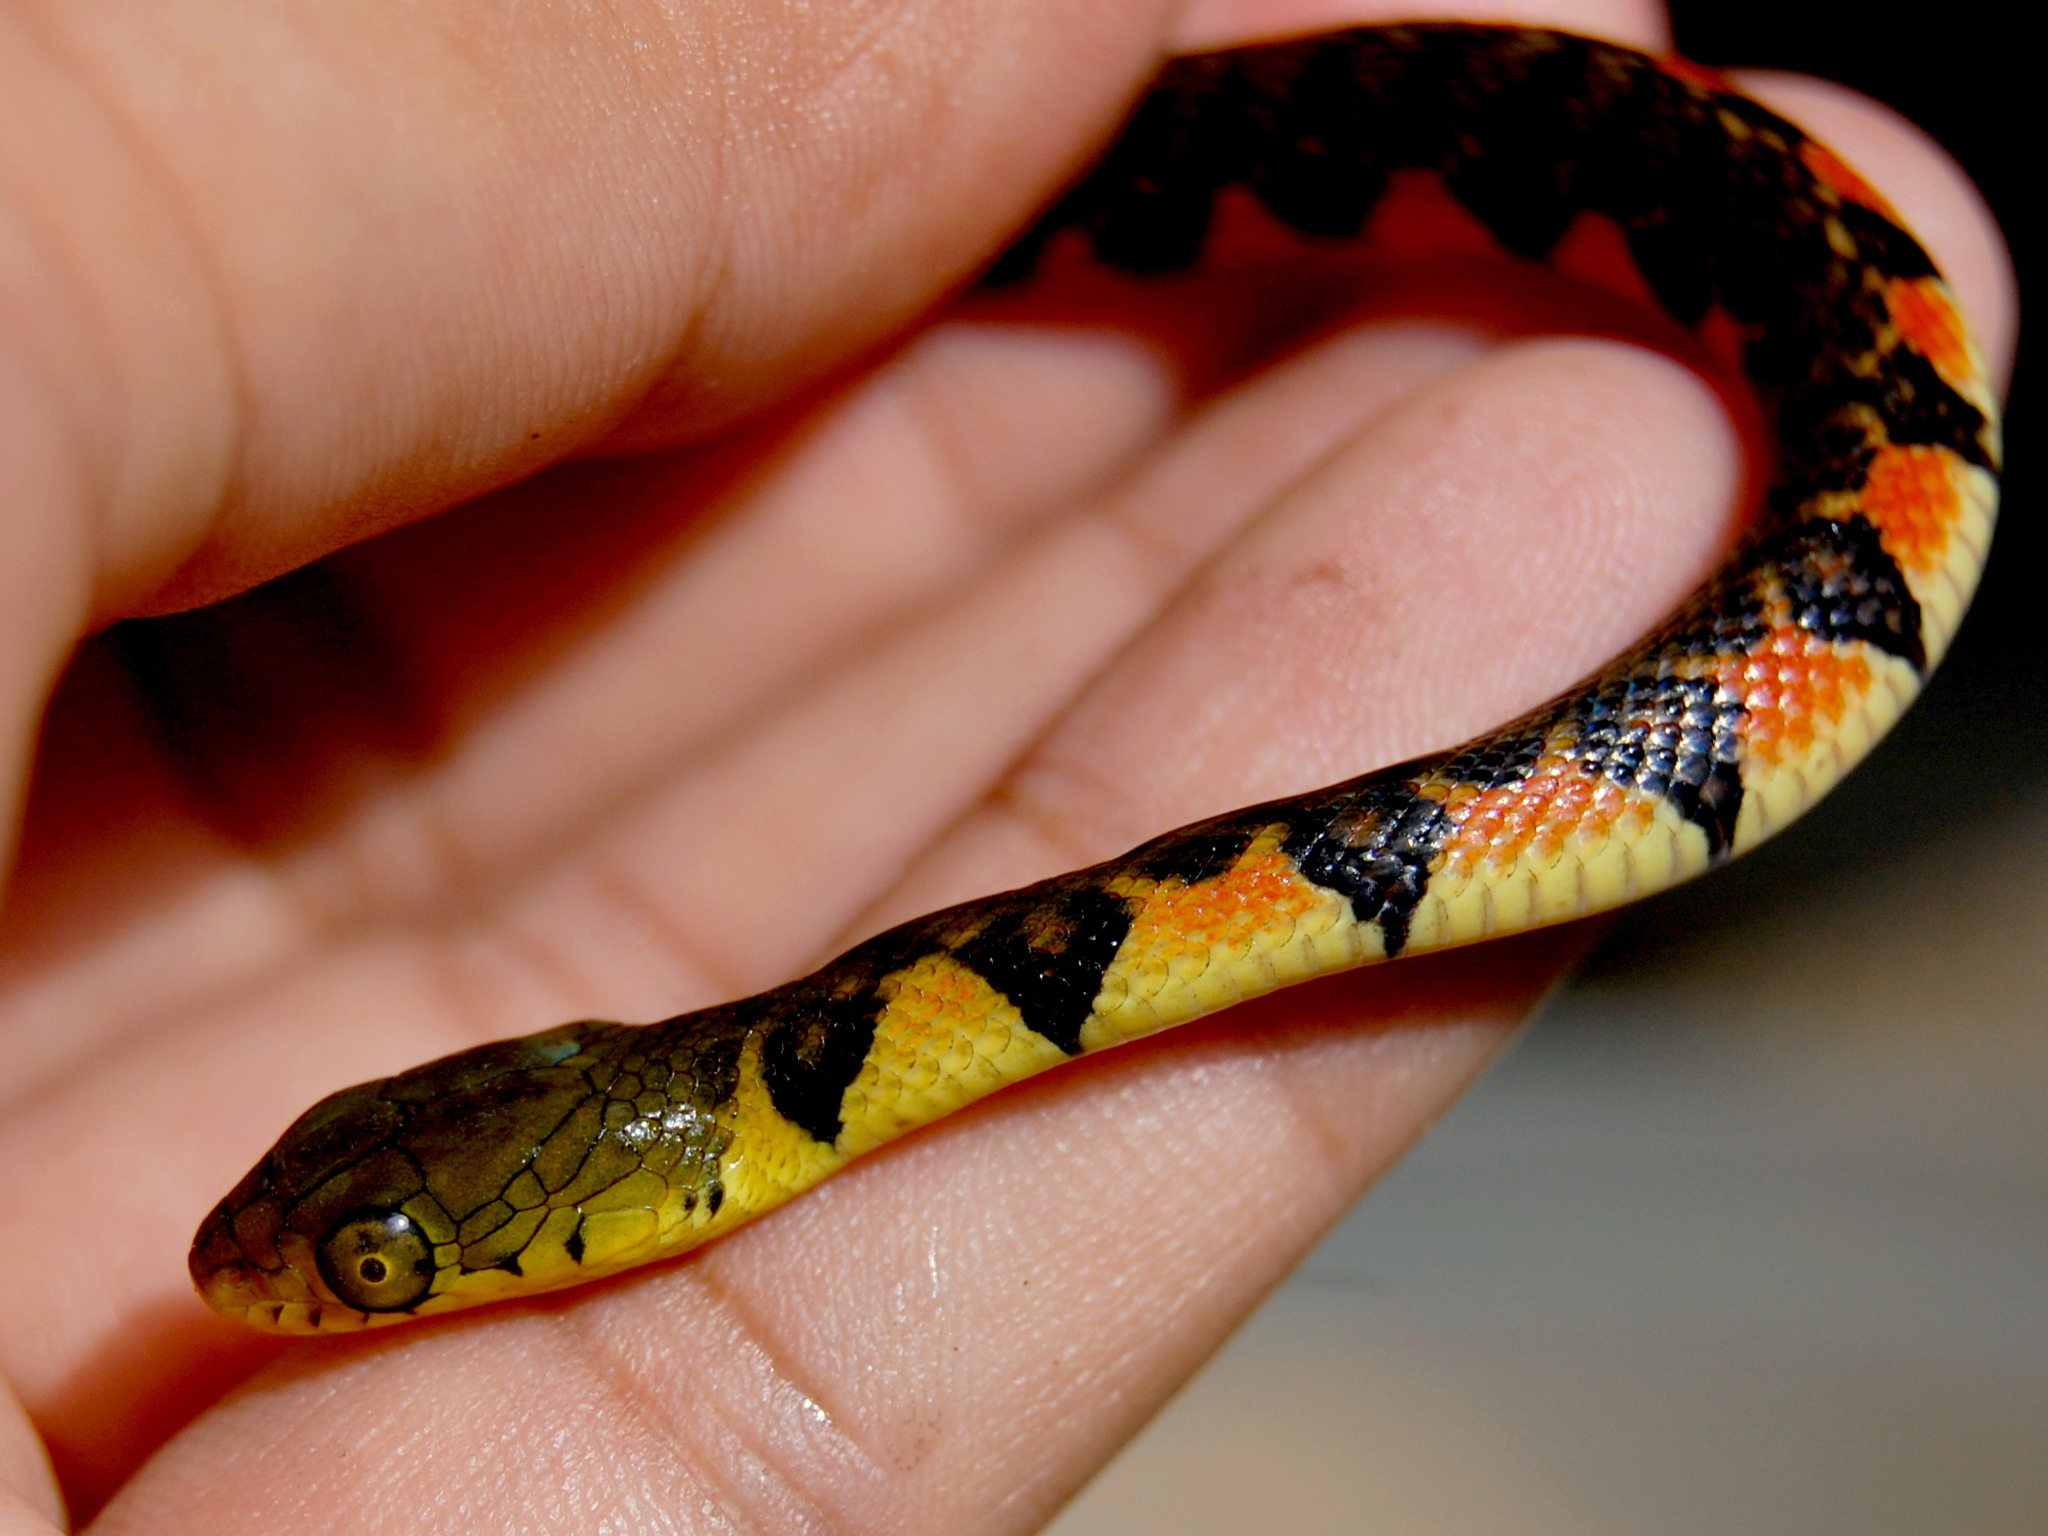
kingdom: Animalia
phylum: Chordata
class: Squamata
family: Colubridae
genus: Xenochrophis
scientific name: Xenochrophis trianguligerus
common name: Triangle keelback
